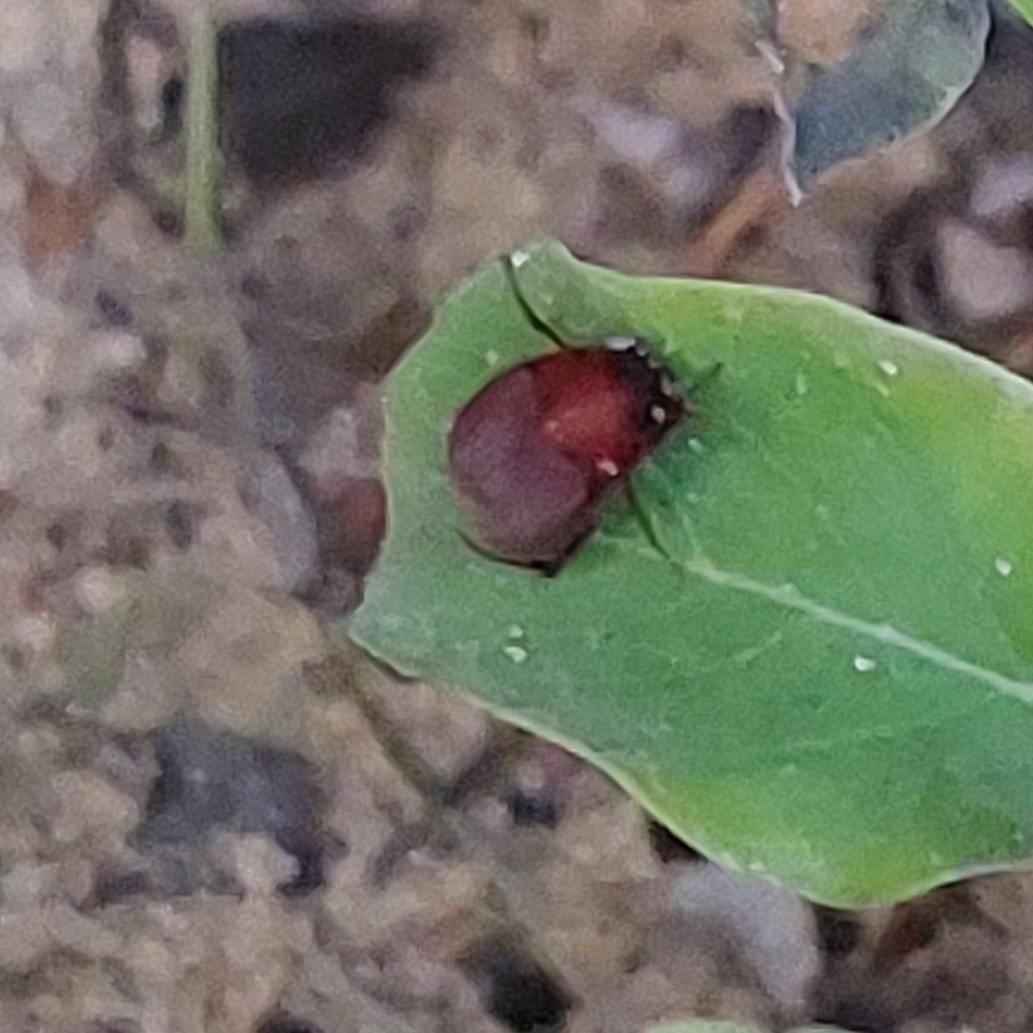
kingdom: Animalia
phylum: Arthropoda
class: Insecta
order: Coleoptera
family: Scarabaeidae
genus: Maladera
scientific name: Maladera insanabilis
